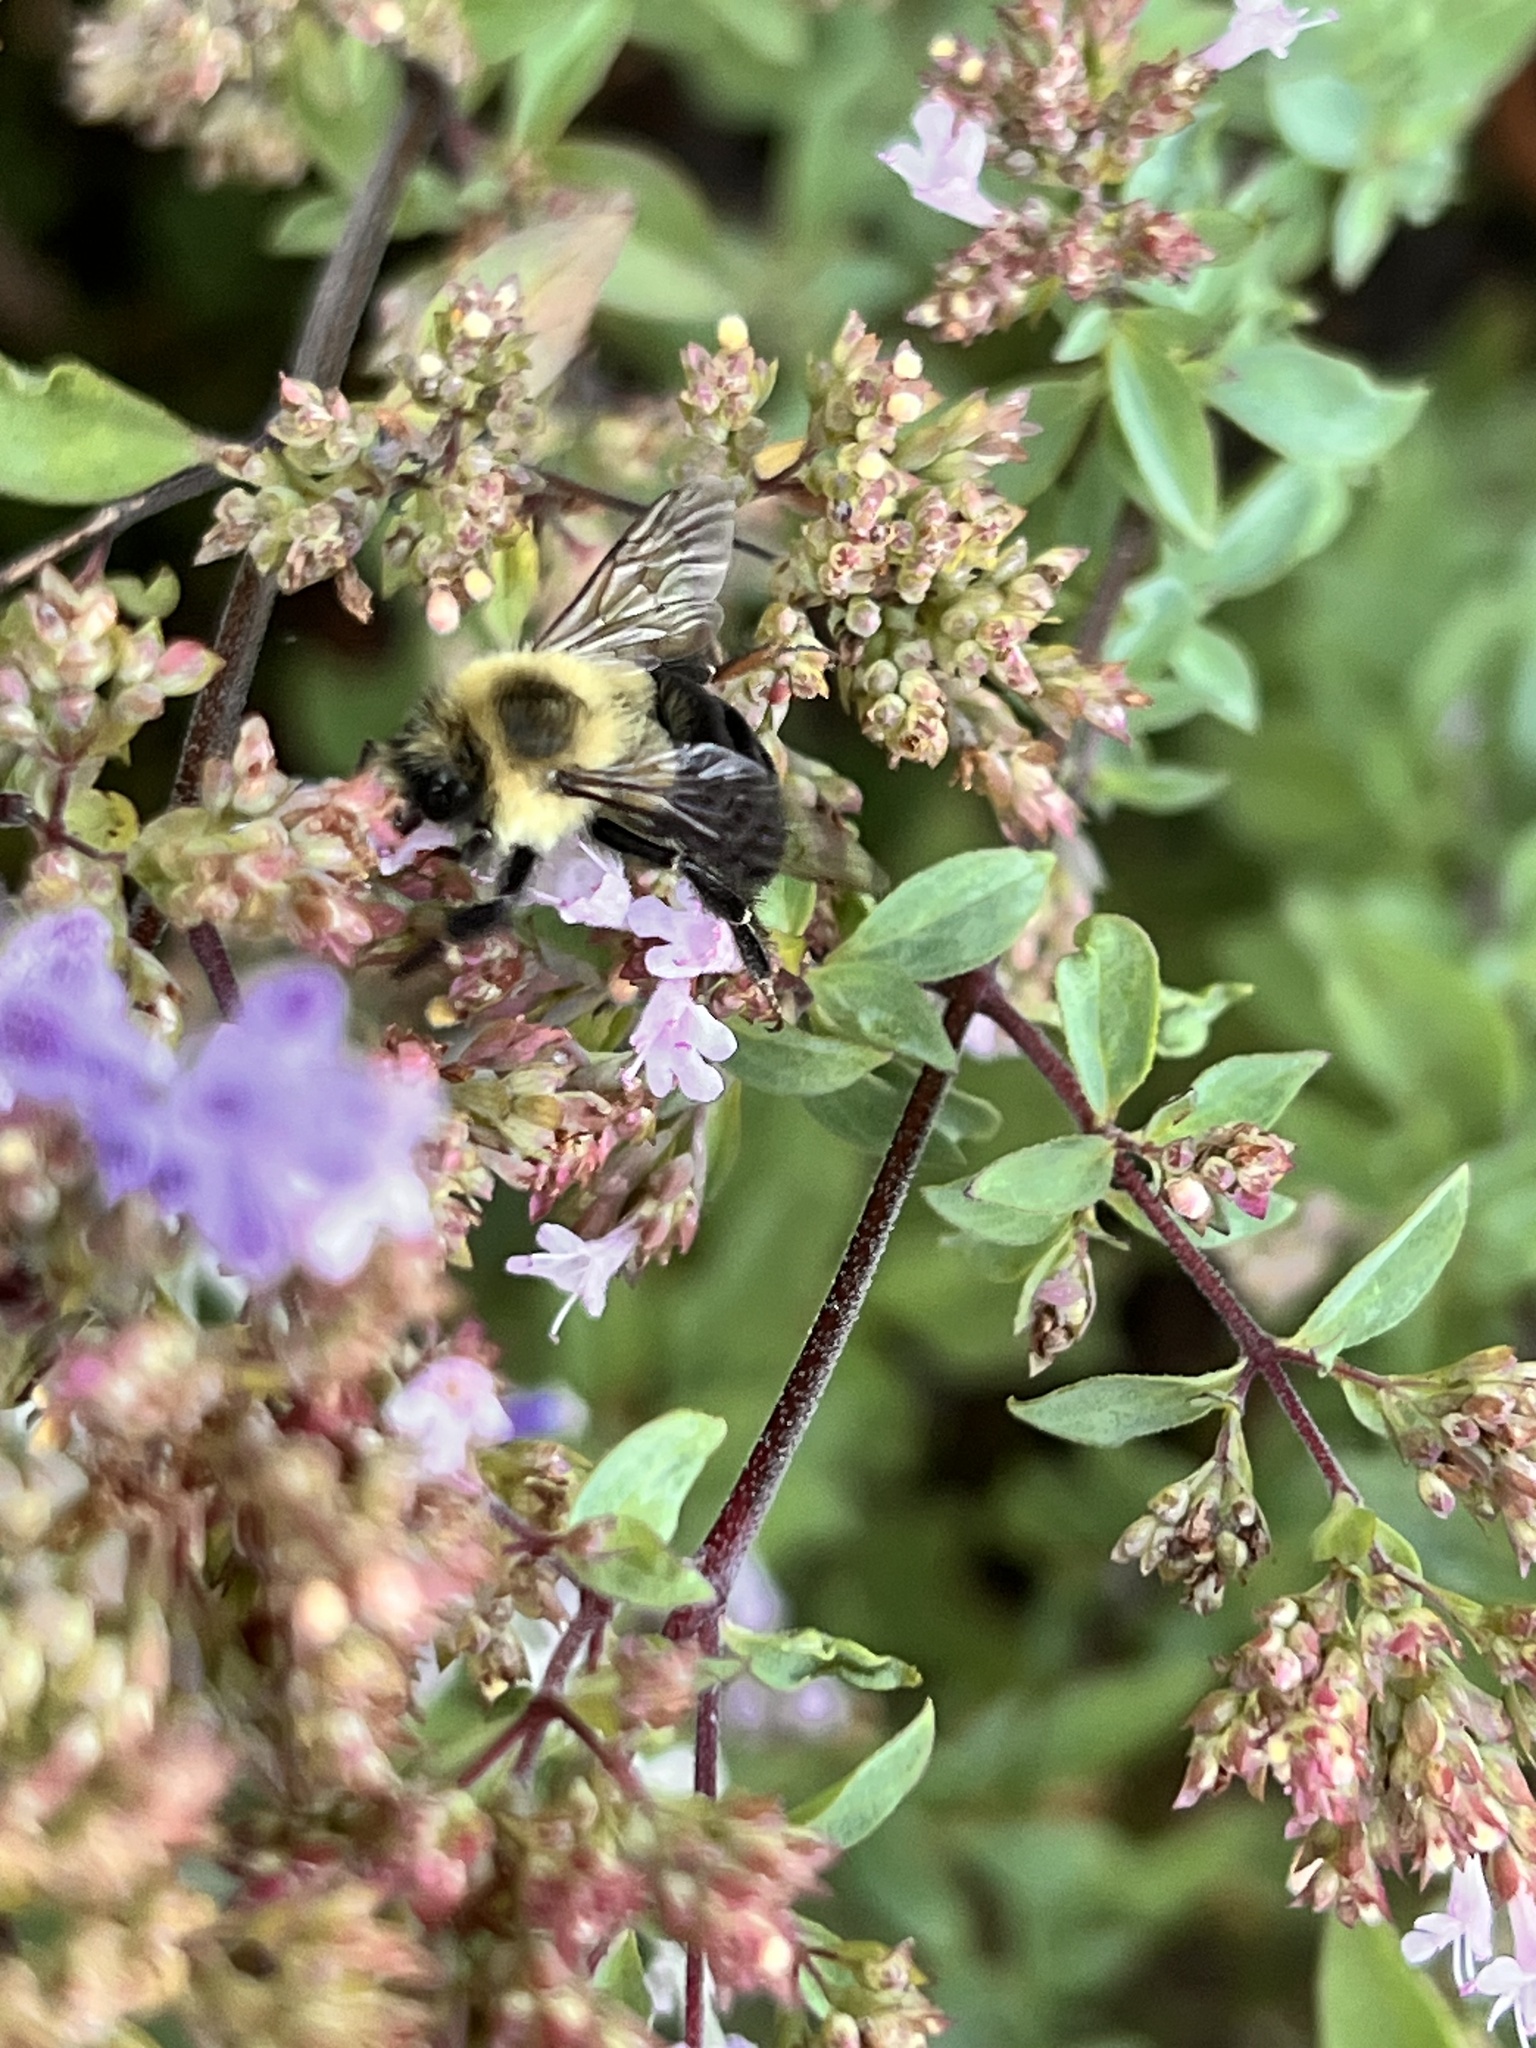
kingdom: Animalia
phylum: Arthropoda
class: Insecta
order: Hymenoptera
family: Apidae
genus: Bombus
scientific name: Bombus impatiens
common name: Common eastern bumble bee
